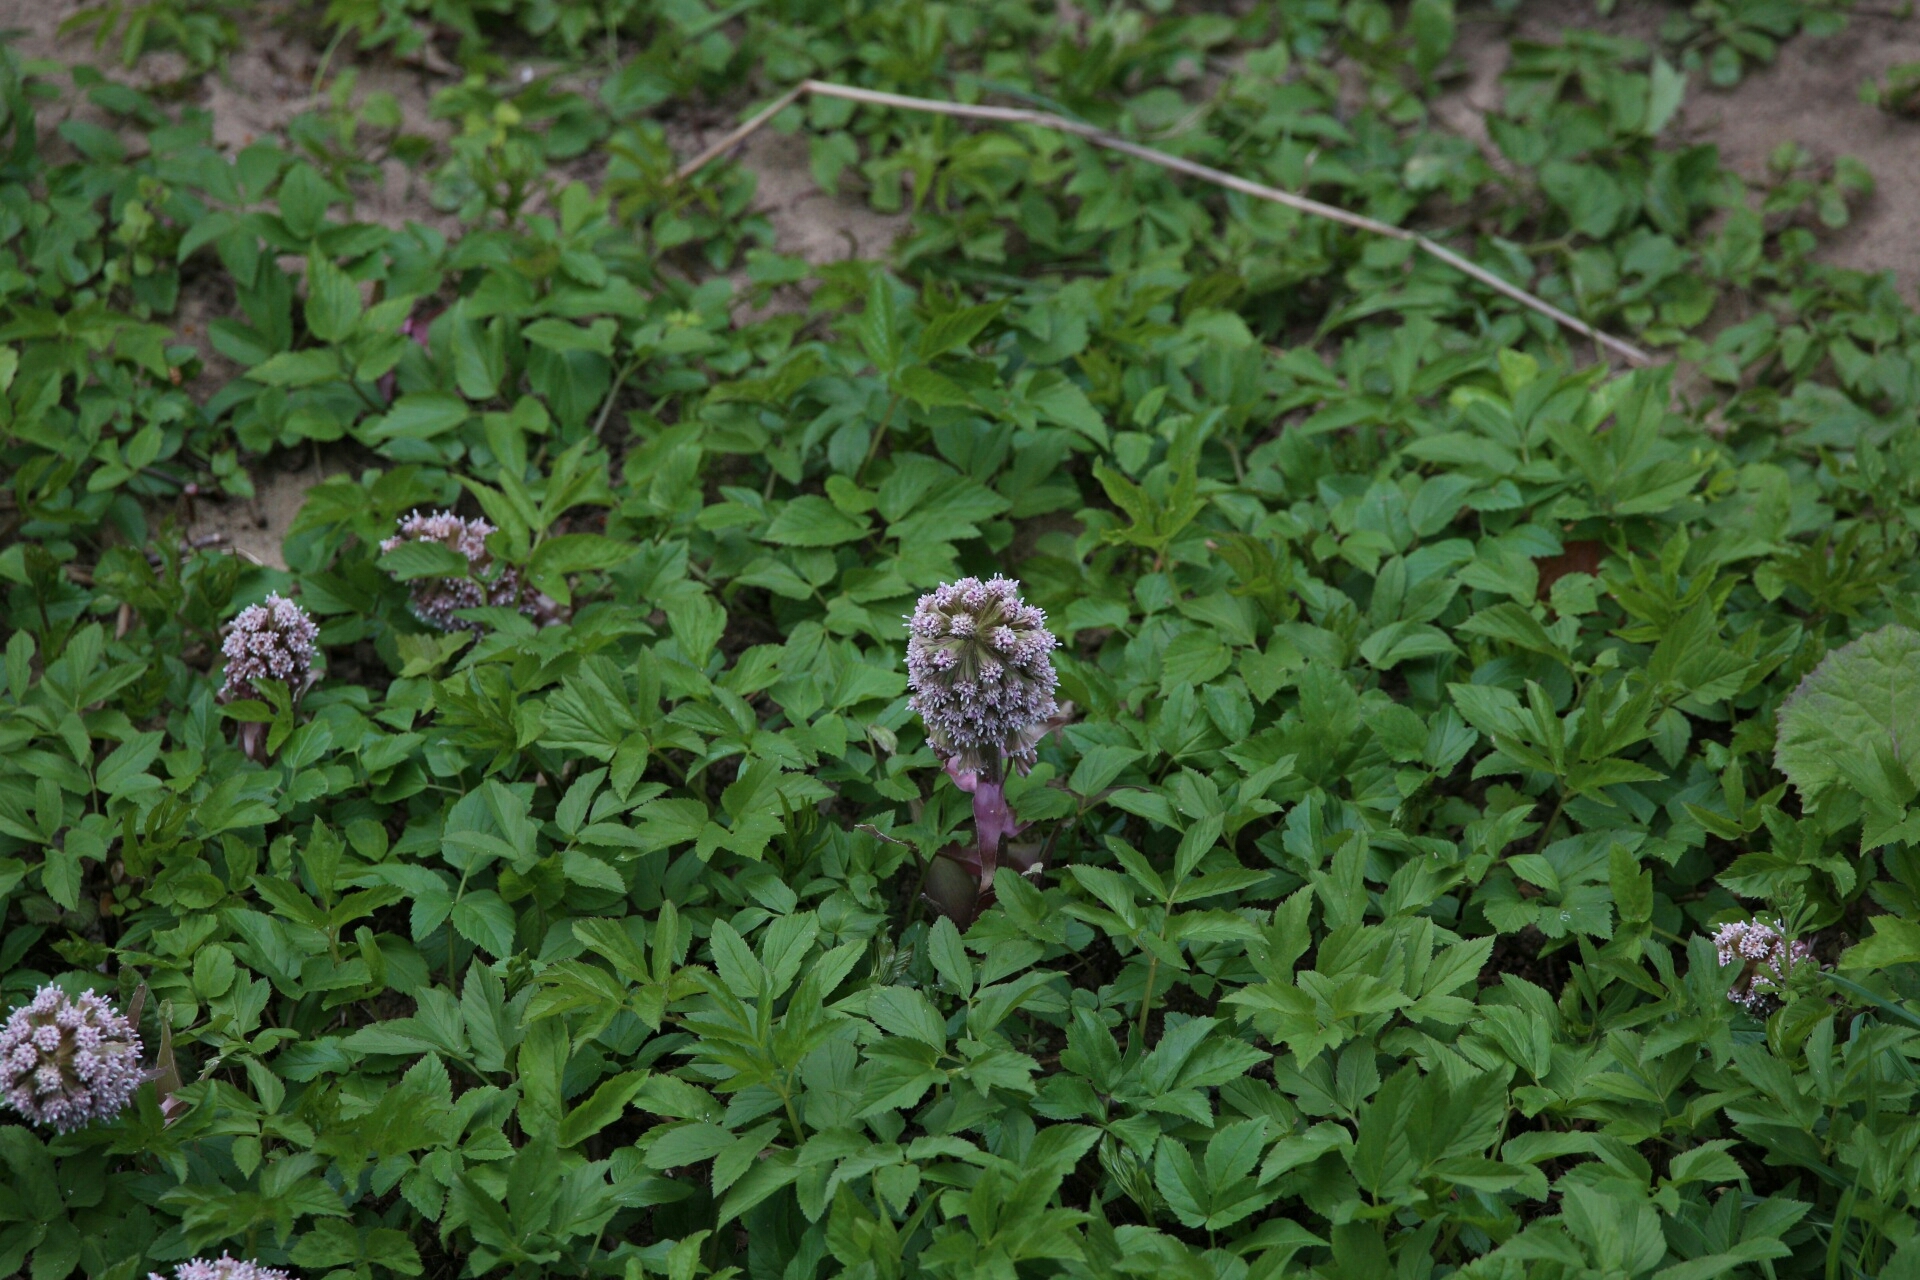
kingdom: Plantae
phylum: Tracheophyta
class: Magnoliopsida
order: Asterales
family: Asteraceae
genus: Petasites
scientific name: Petasites hybridus
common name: Butterbur
